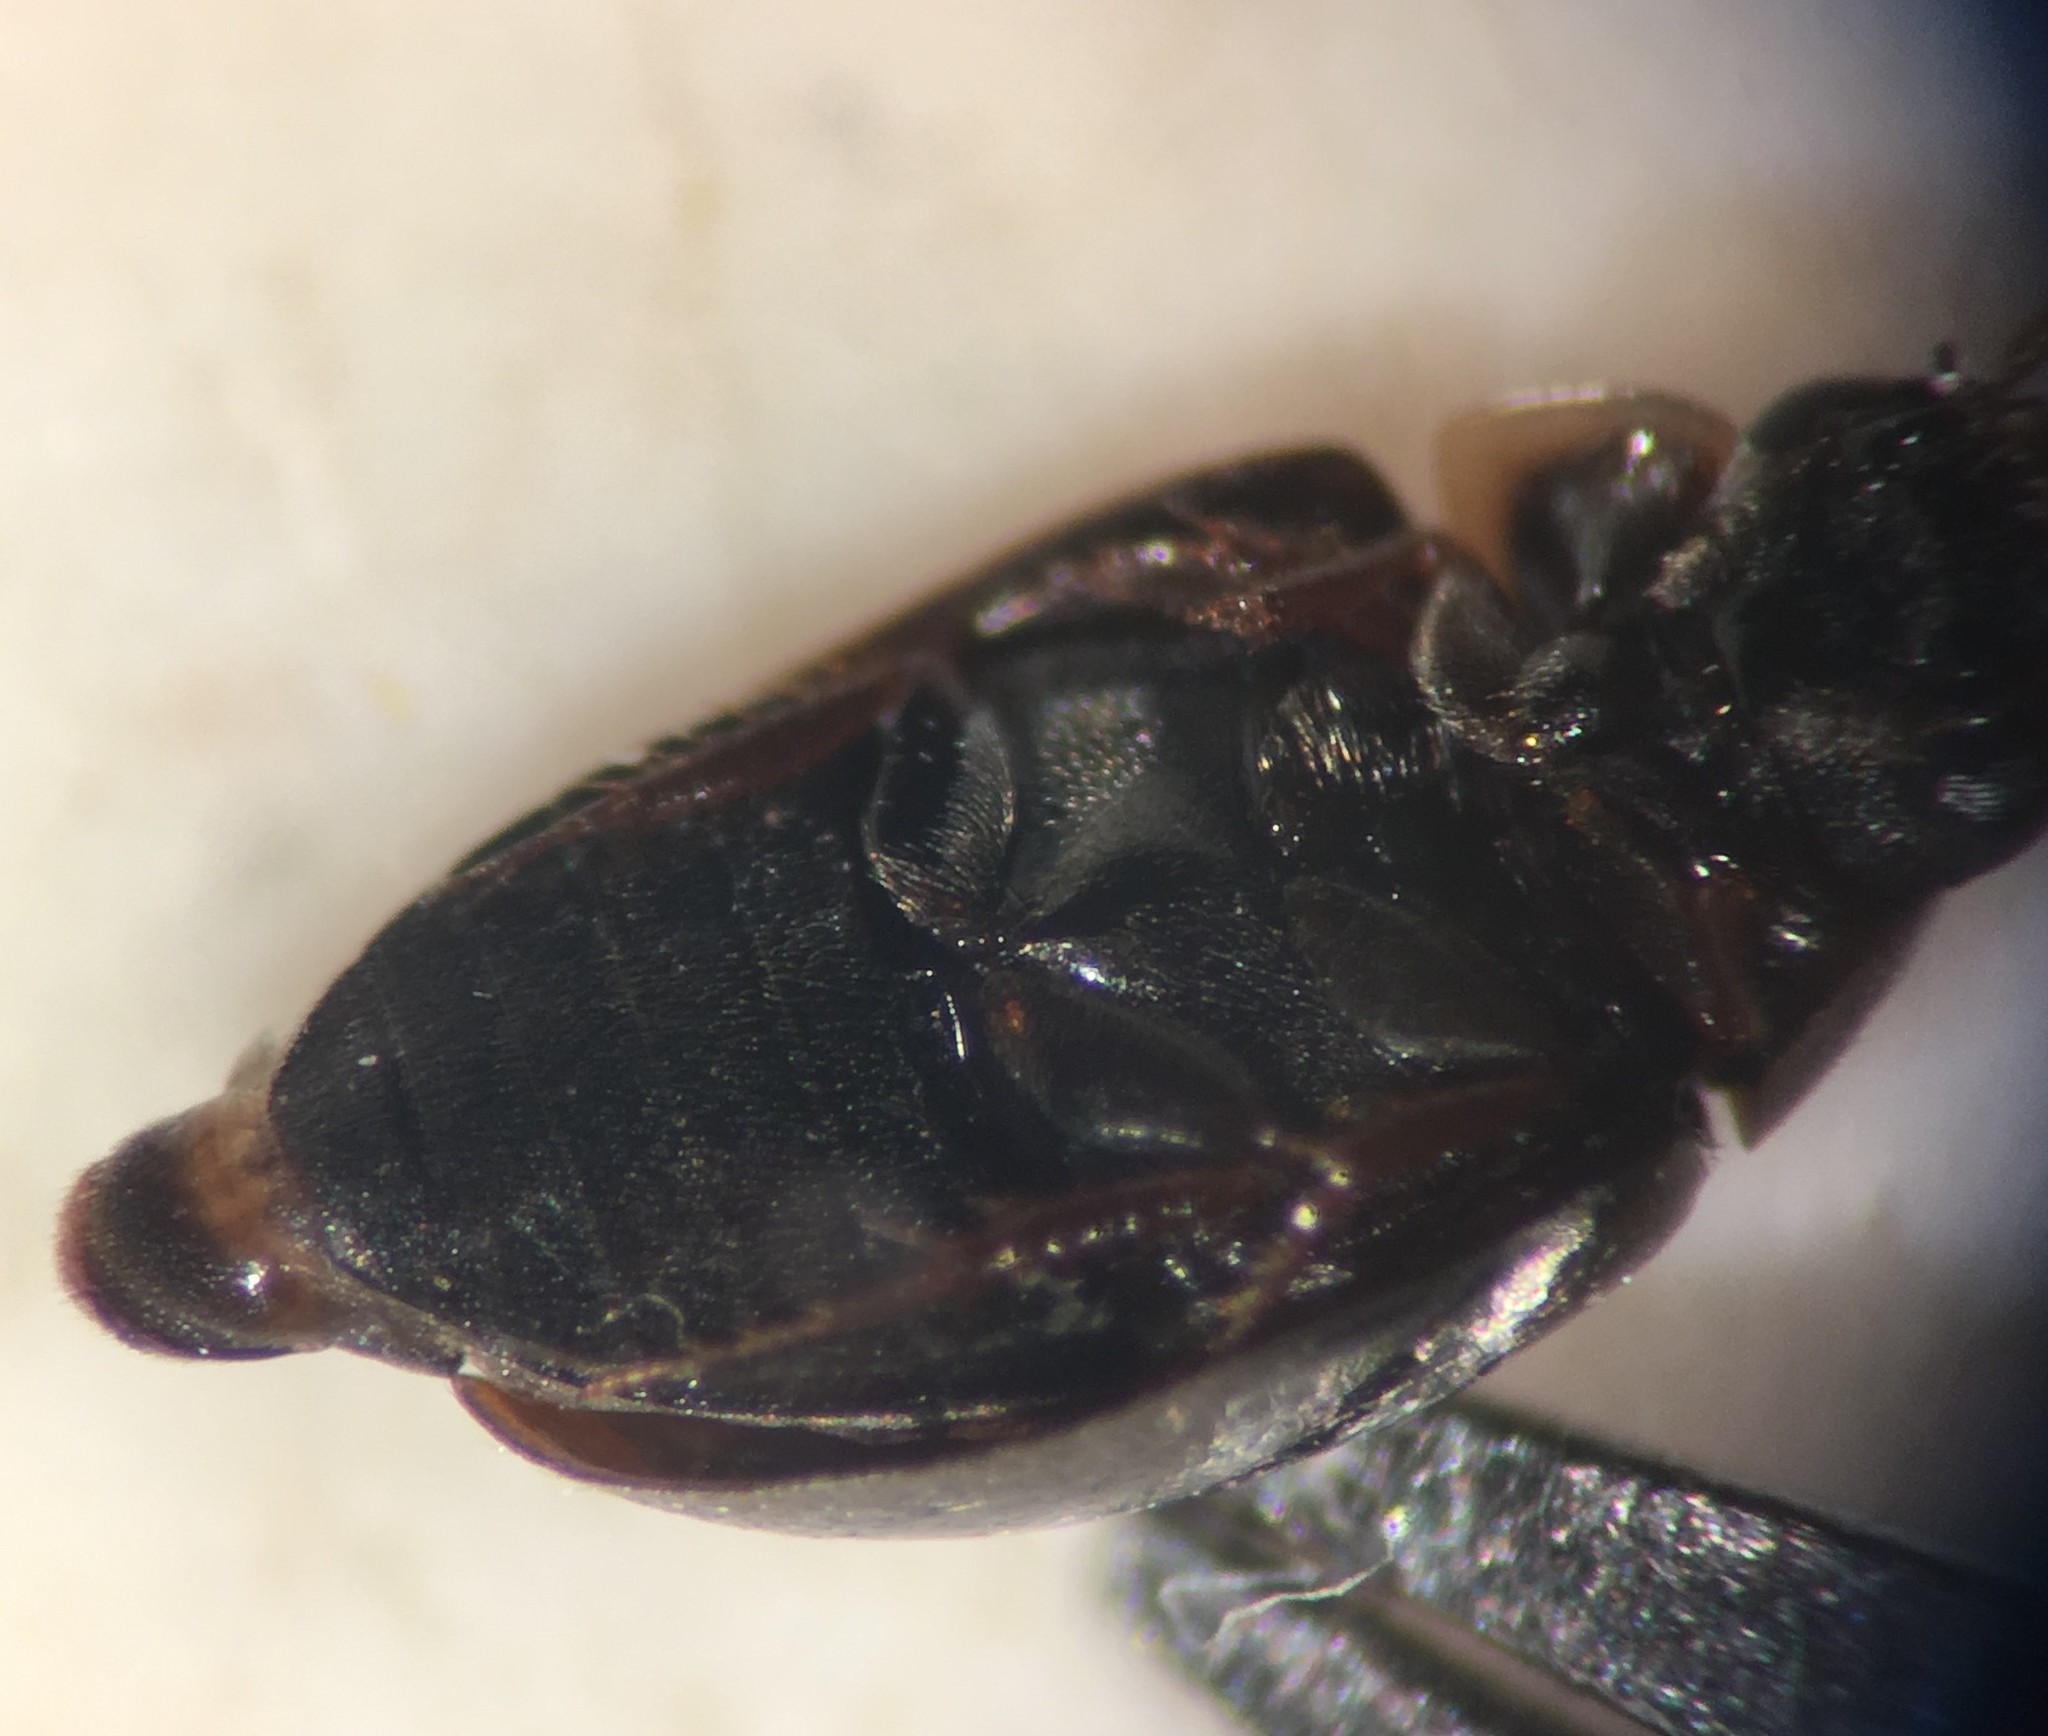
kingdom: Animalia
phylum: Arthropoda
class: Insecta
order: Coleoptera
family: Hydrophilidae
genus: Crenitulus
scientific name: Crenitulus suturalis
